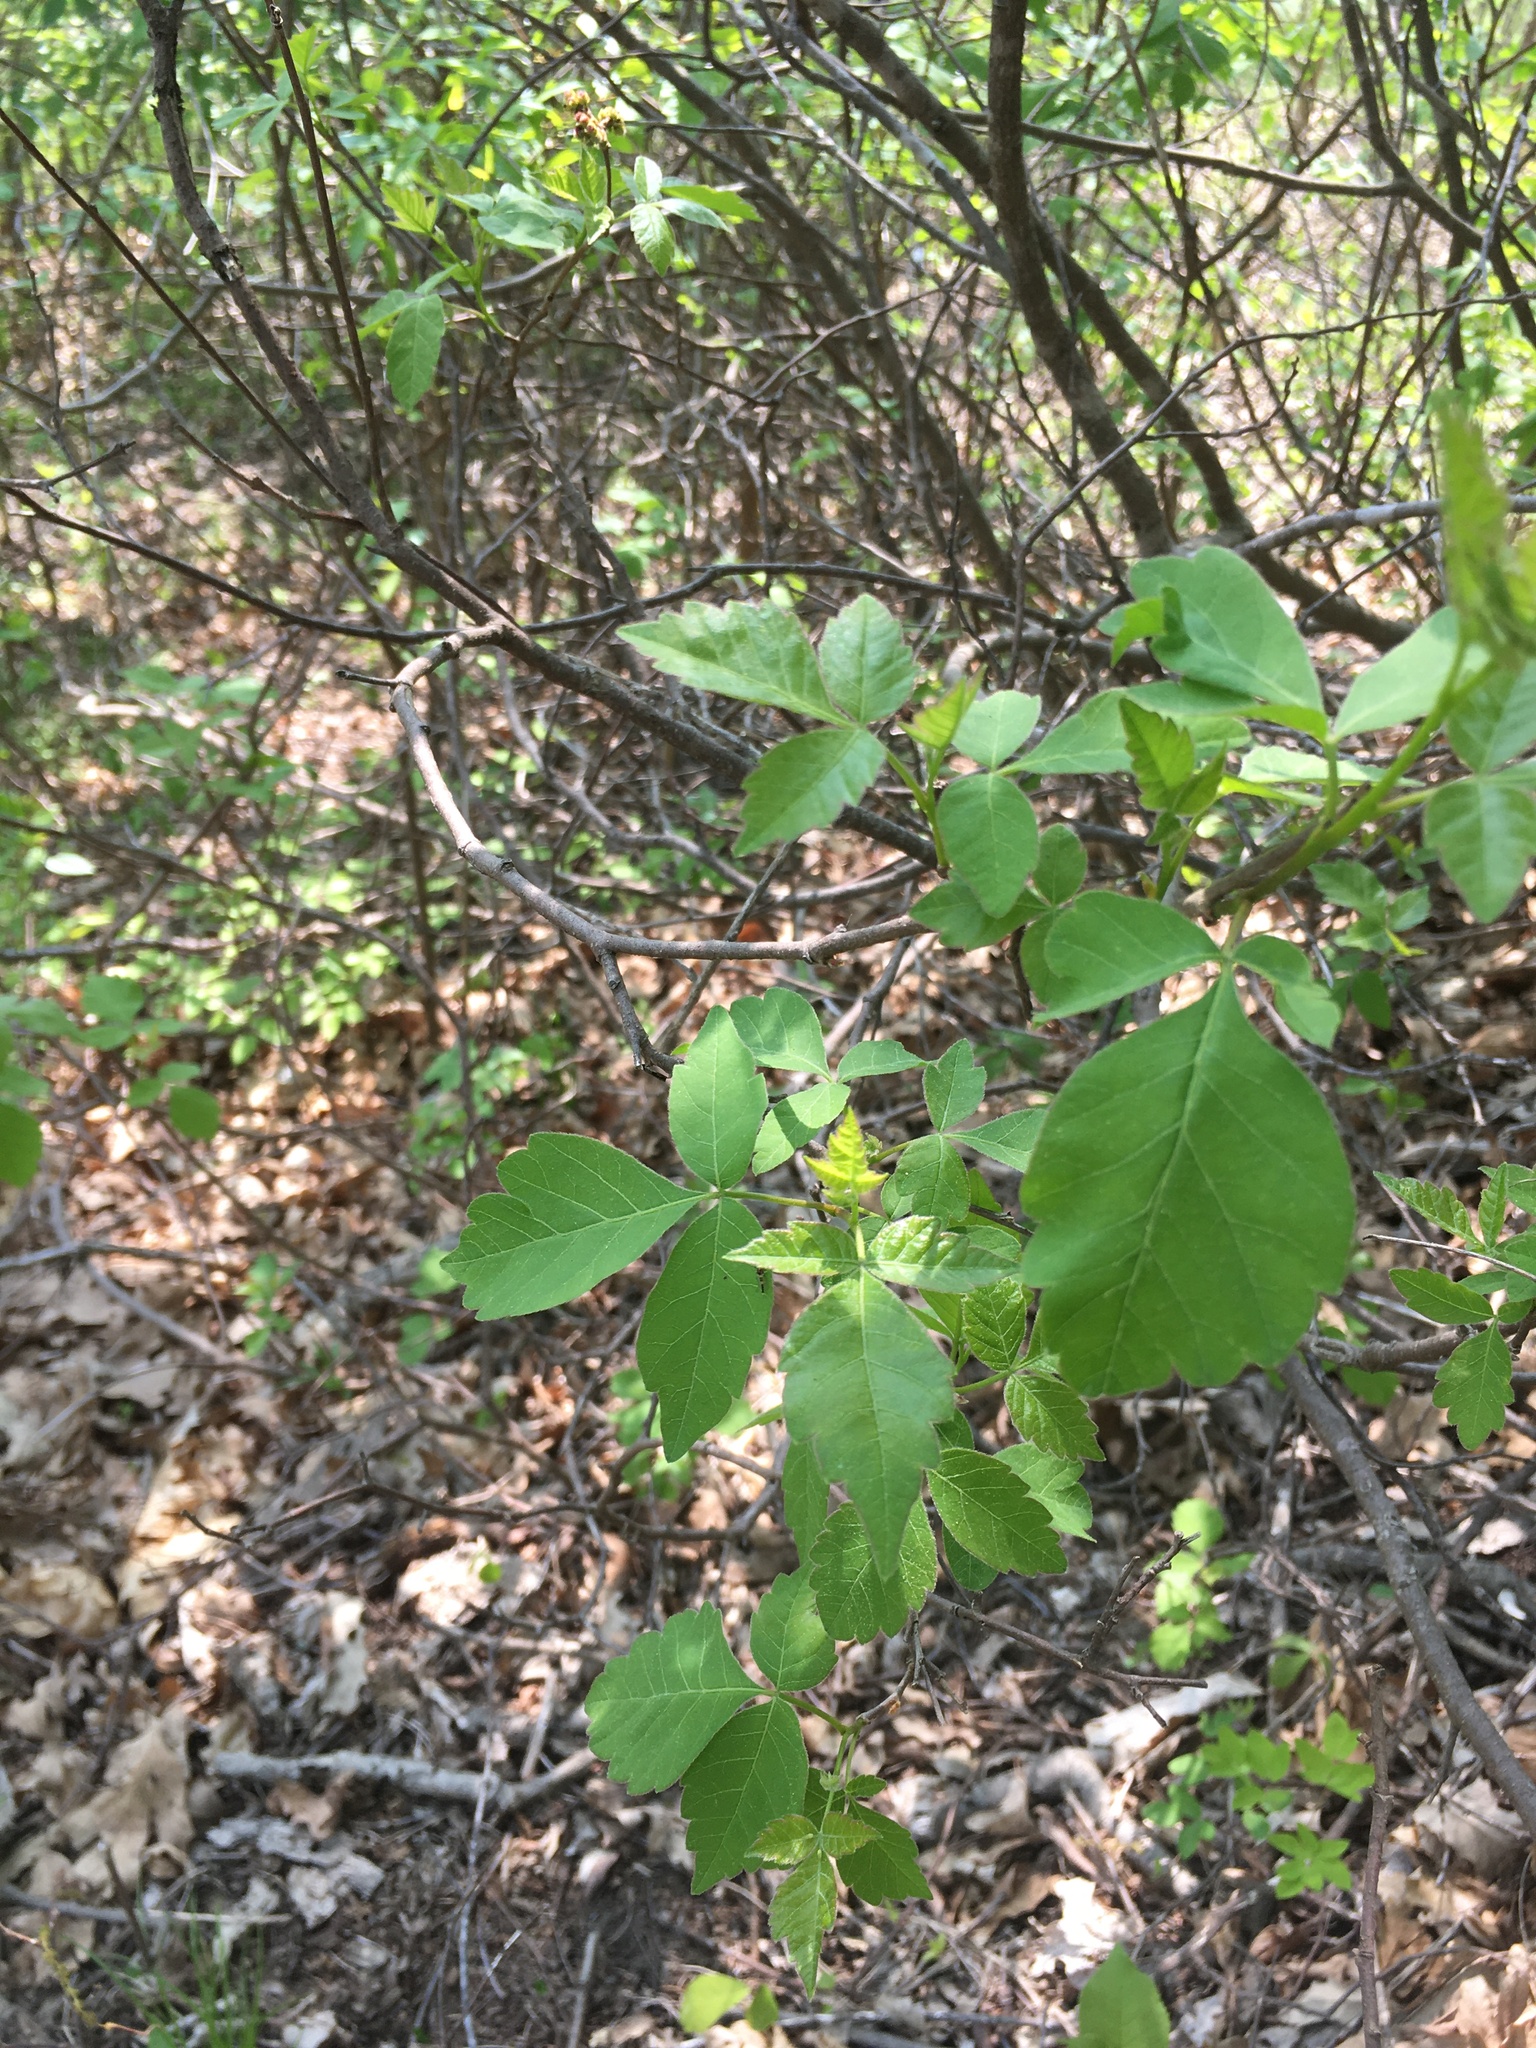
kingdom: Plantae
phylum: Tracheophyta
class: Magnoliopsida
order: Sapindales
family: Anacardiaceae
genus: Rhus
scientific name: Rhus aromatica
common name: Aromatic sumac
